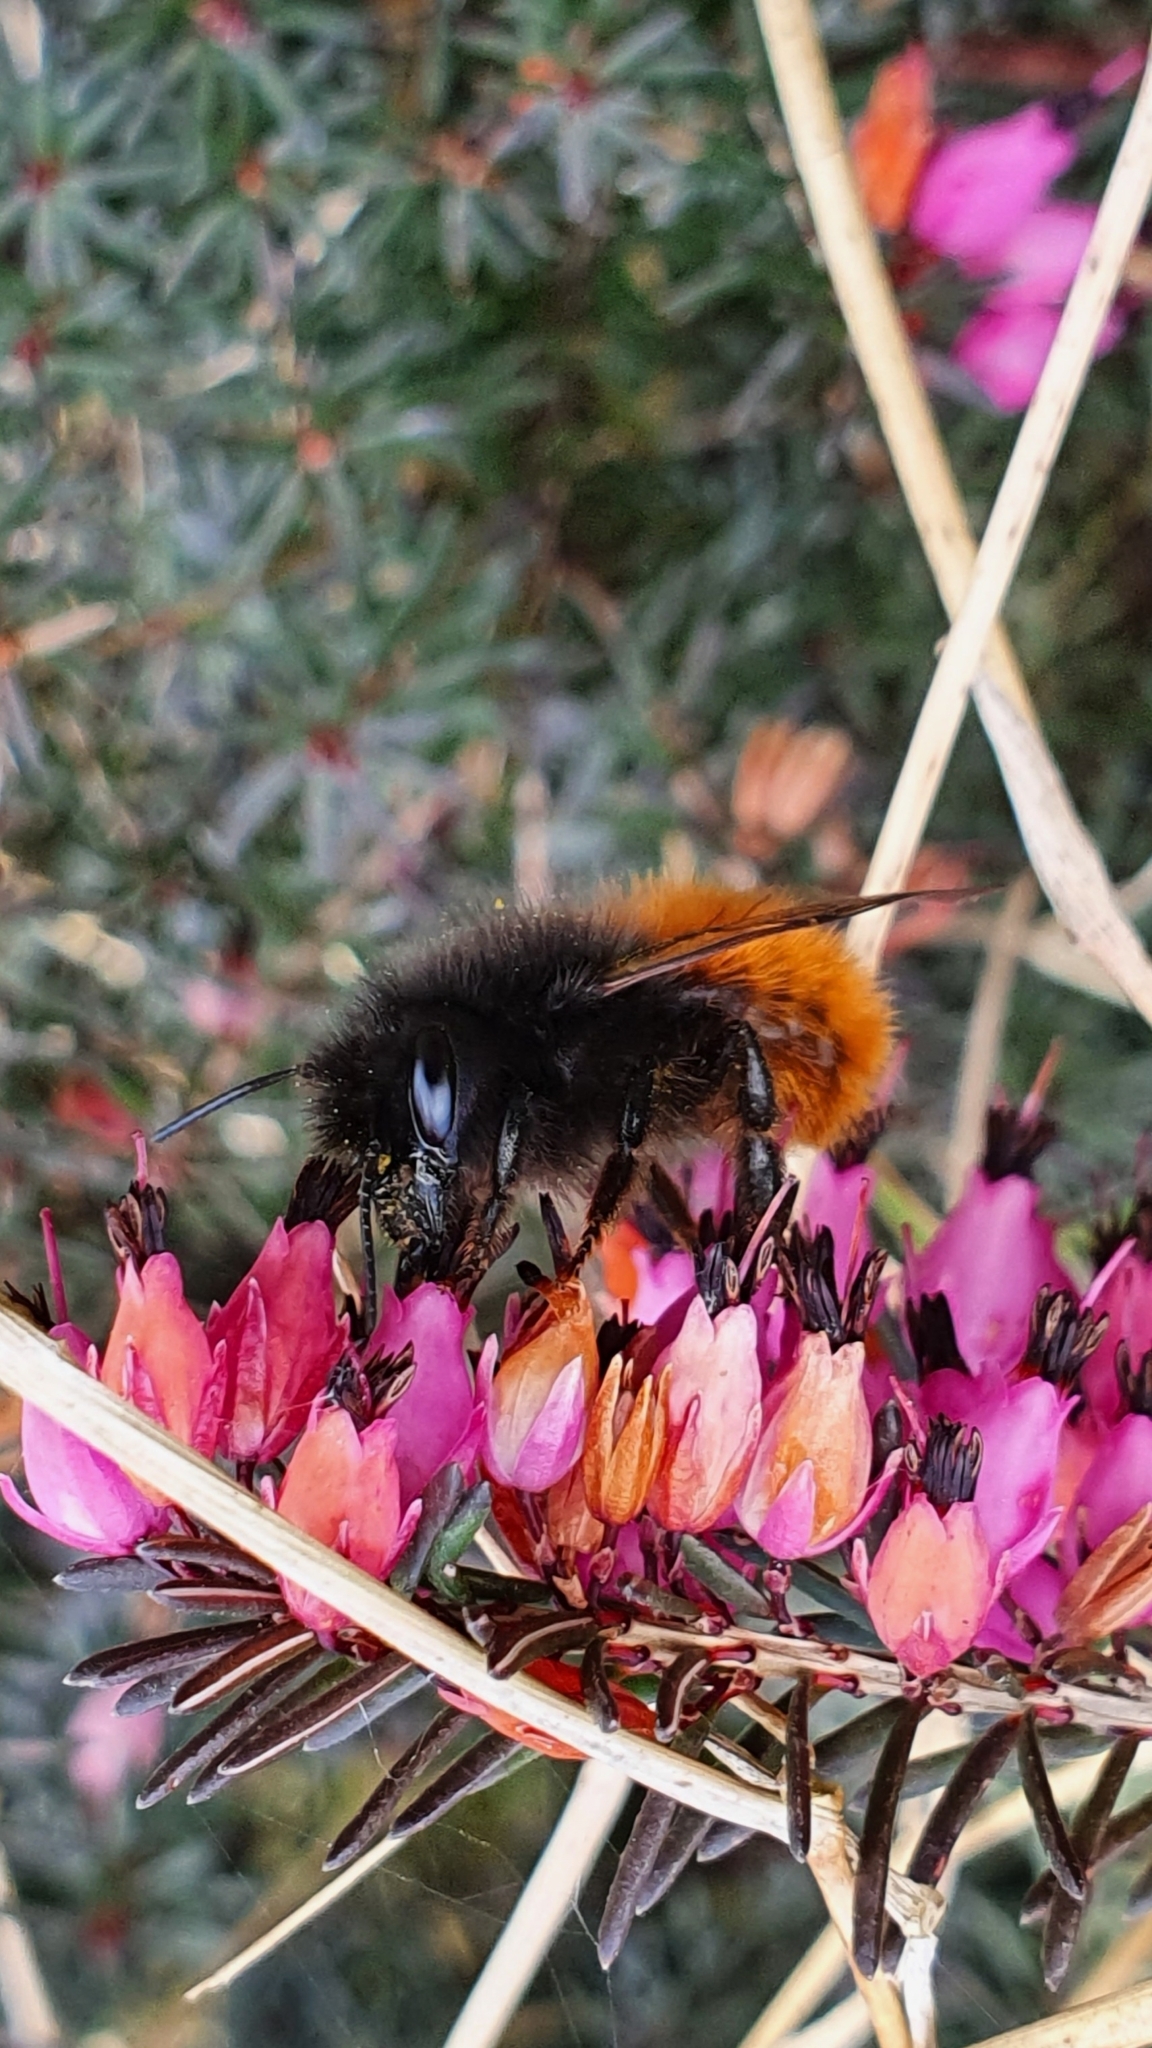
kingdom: Animalia
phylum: Arthropoda
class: Insecta
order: Hymenoptera
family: Megachilidae
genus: Osmia
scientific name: Osmia cornuta
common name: Mason bee
